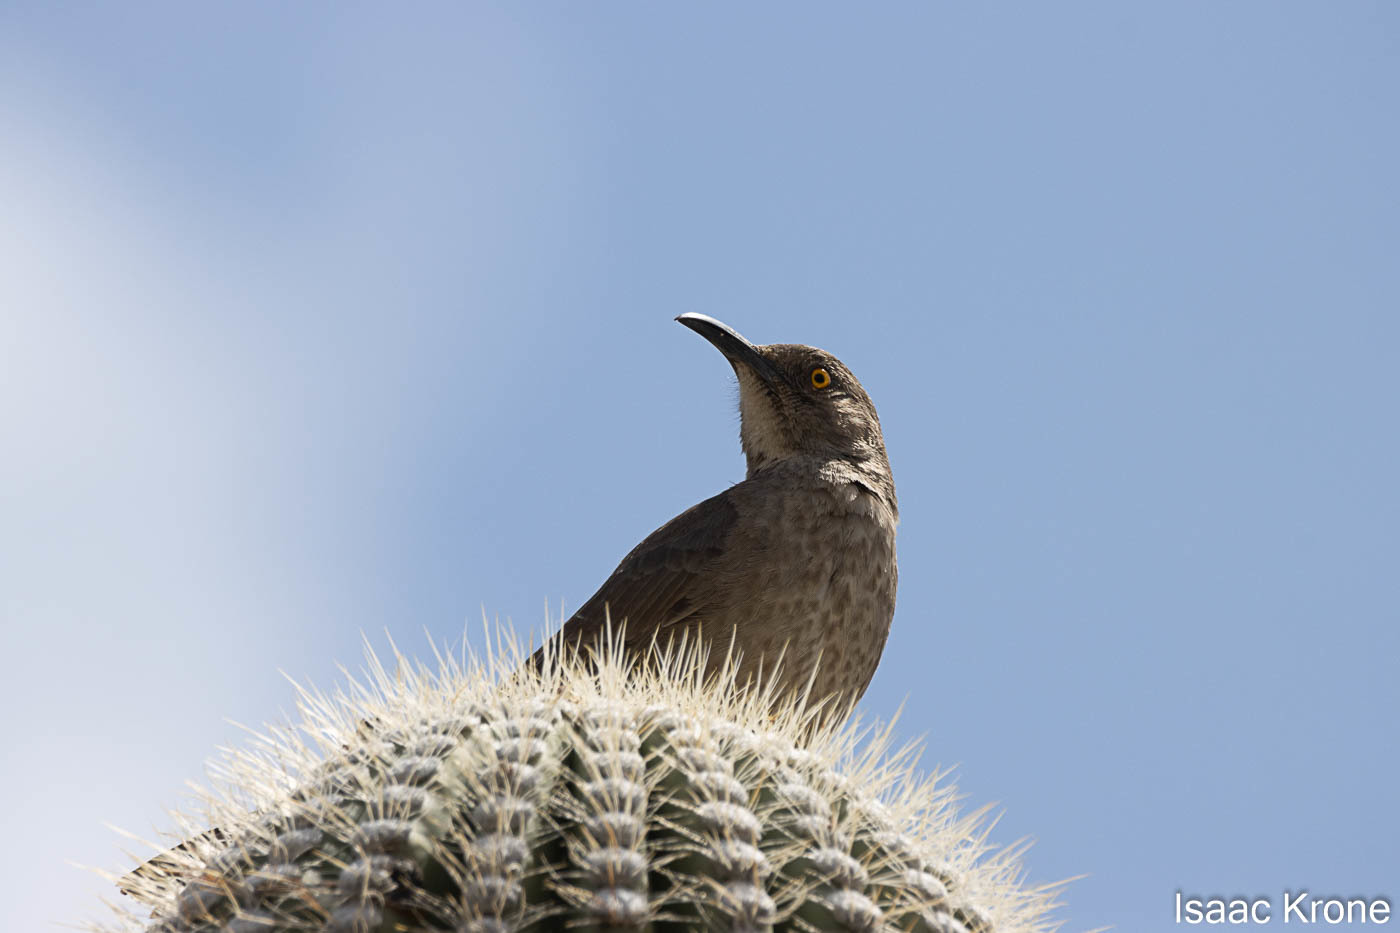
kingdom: Animalia
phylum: Chordata
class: Aves
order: Passeriformes
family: Mimidae
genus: Toxostoma
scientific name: Toxostoma curvirostre
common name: Curve-billed thrasher
